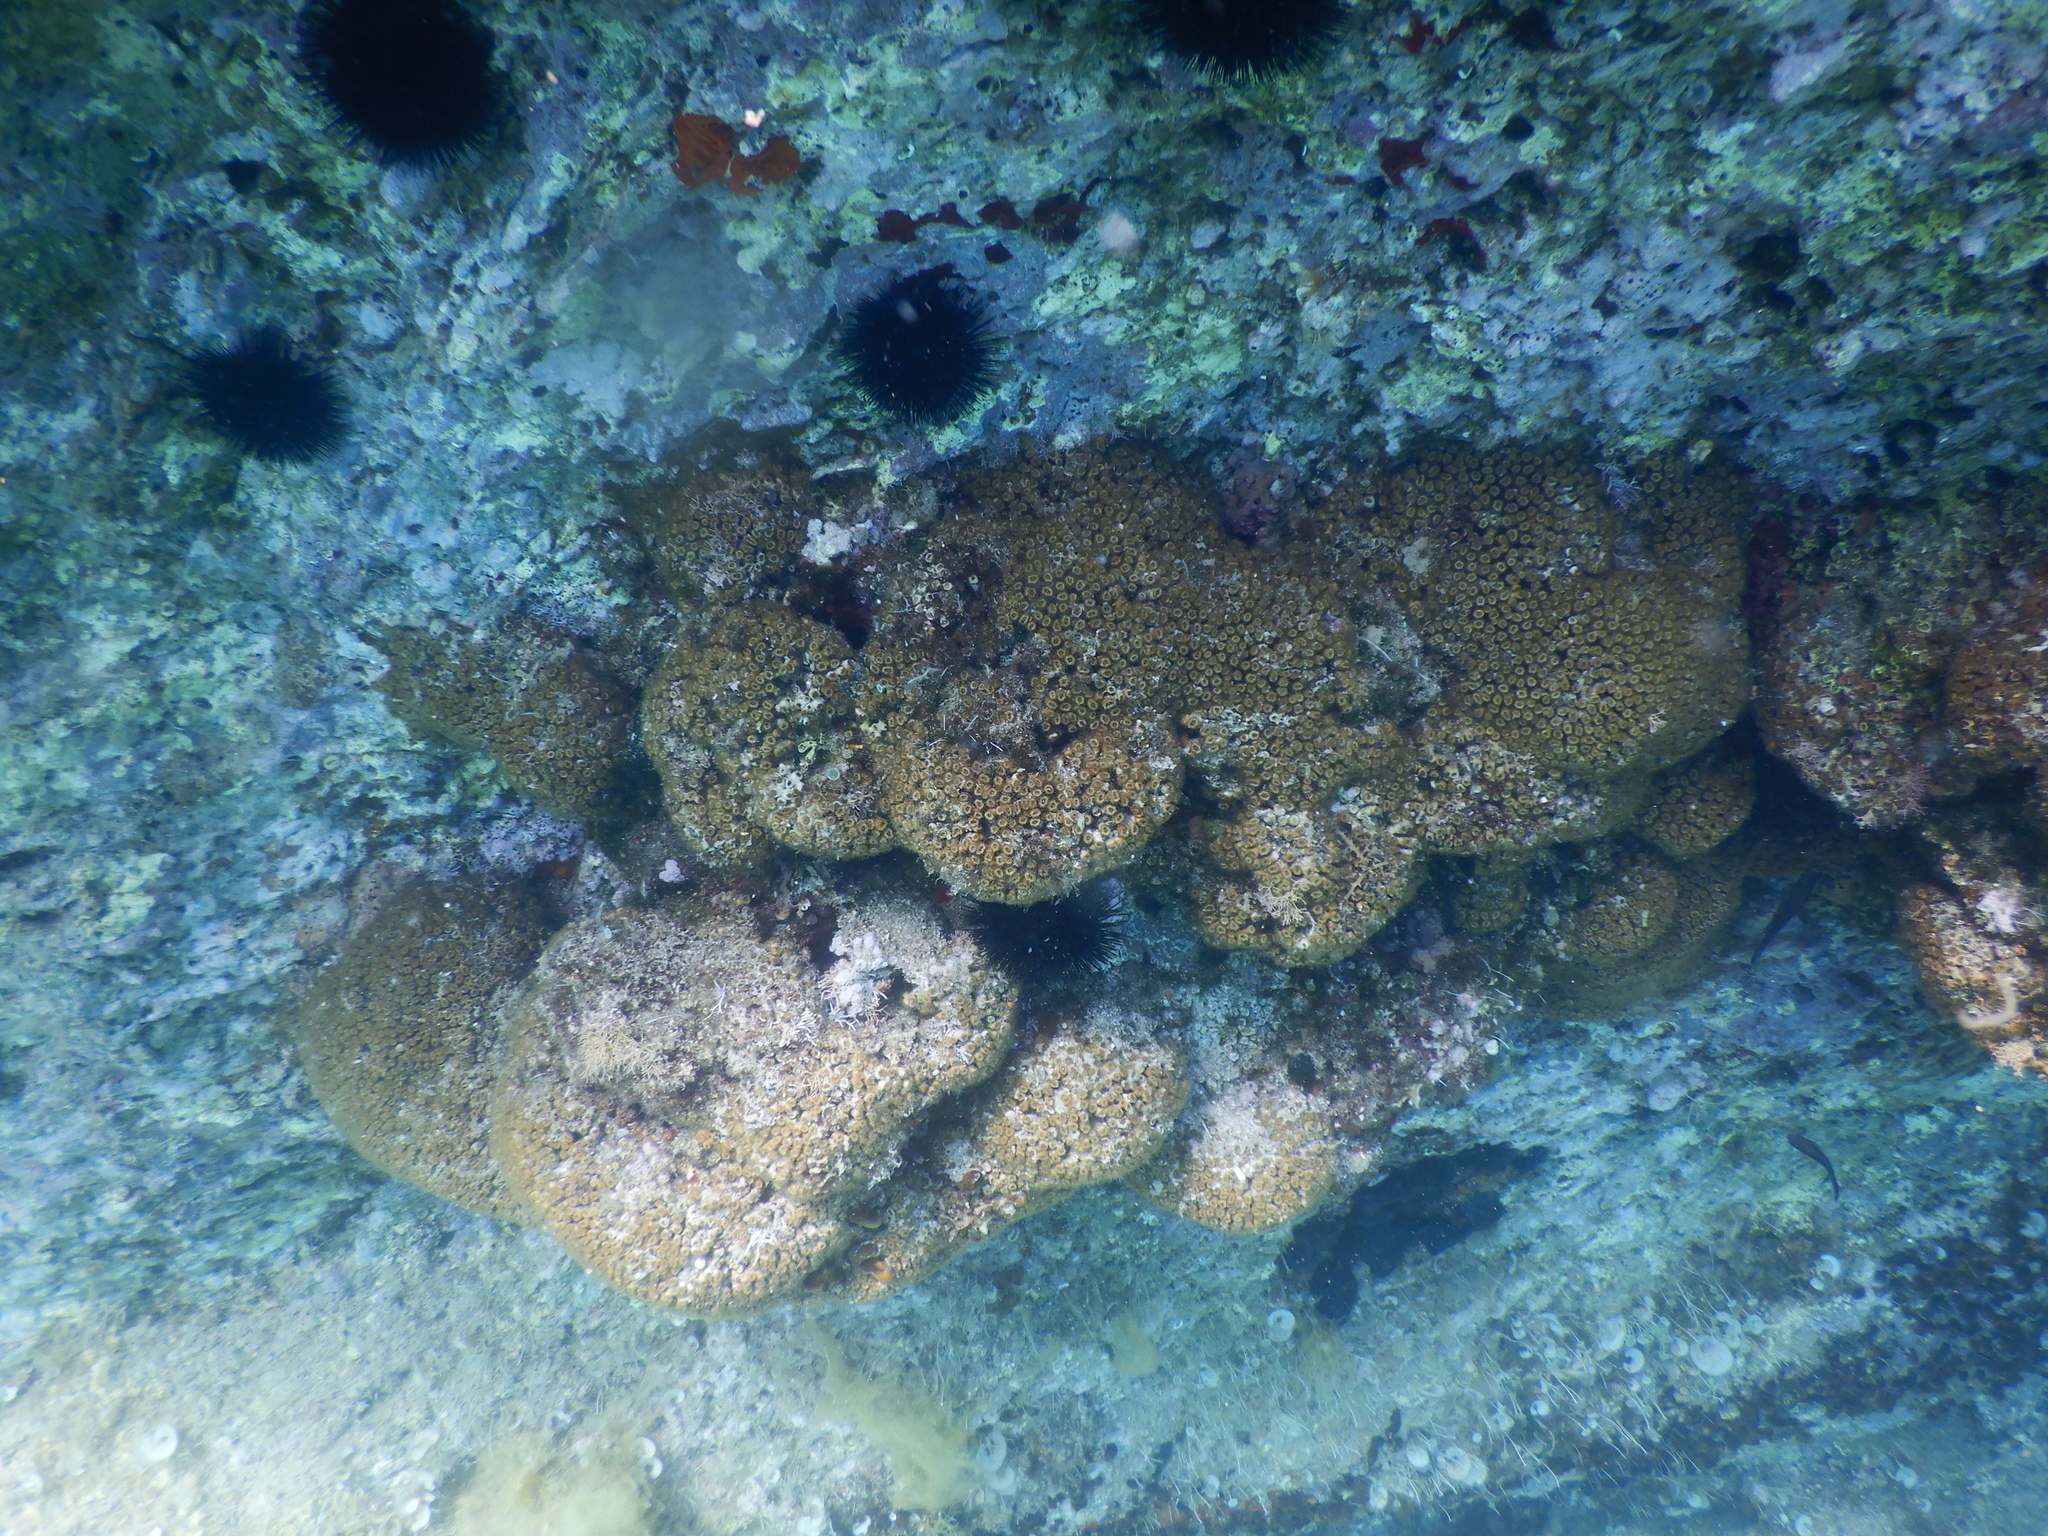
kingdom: Animalia
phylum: Cnidaria
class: Anthozoa
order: Scleractinia
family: Cladocoridae
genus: Cladocora
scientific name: Cladocora caespitosa
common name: Cladocora
